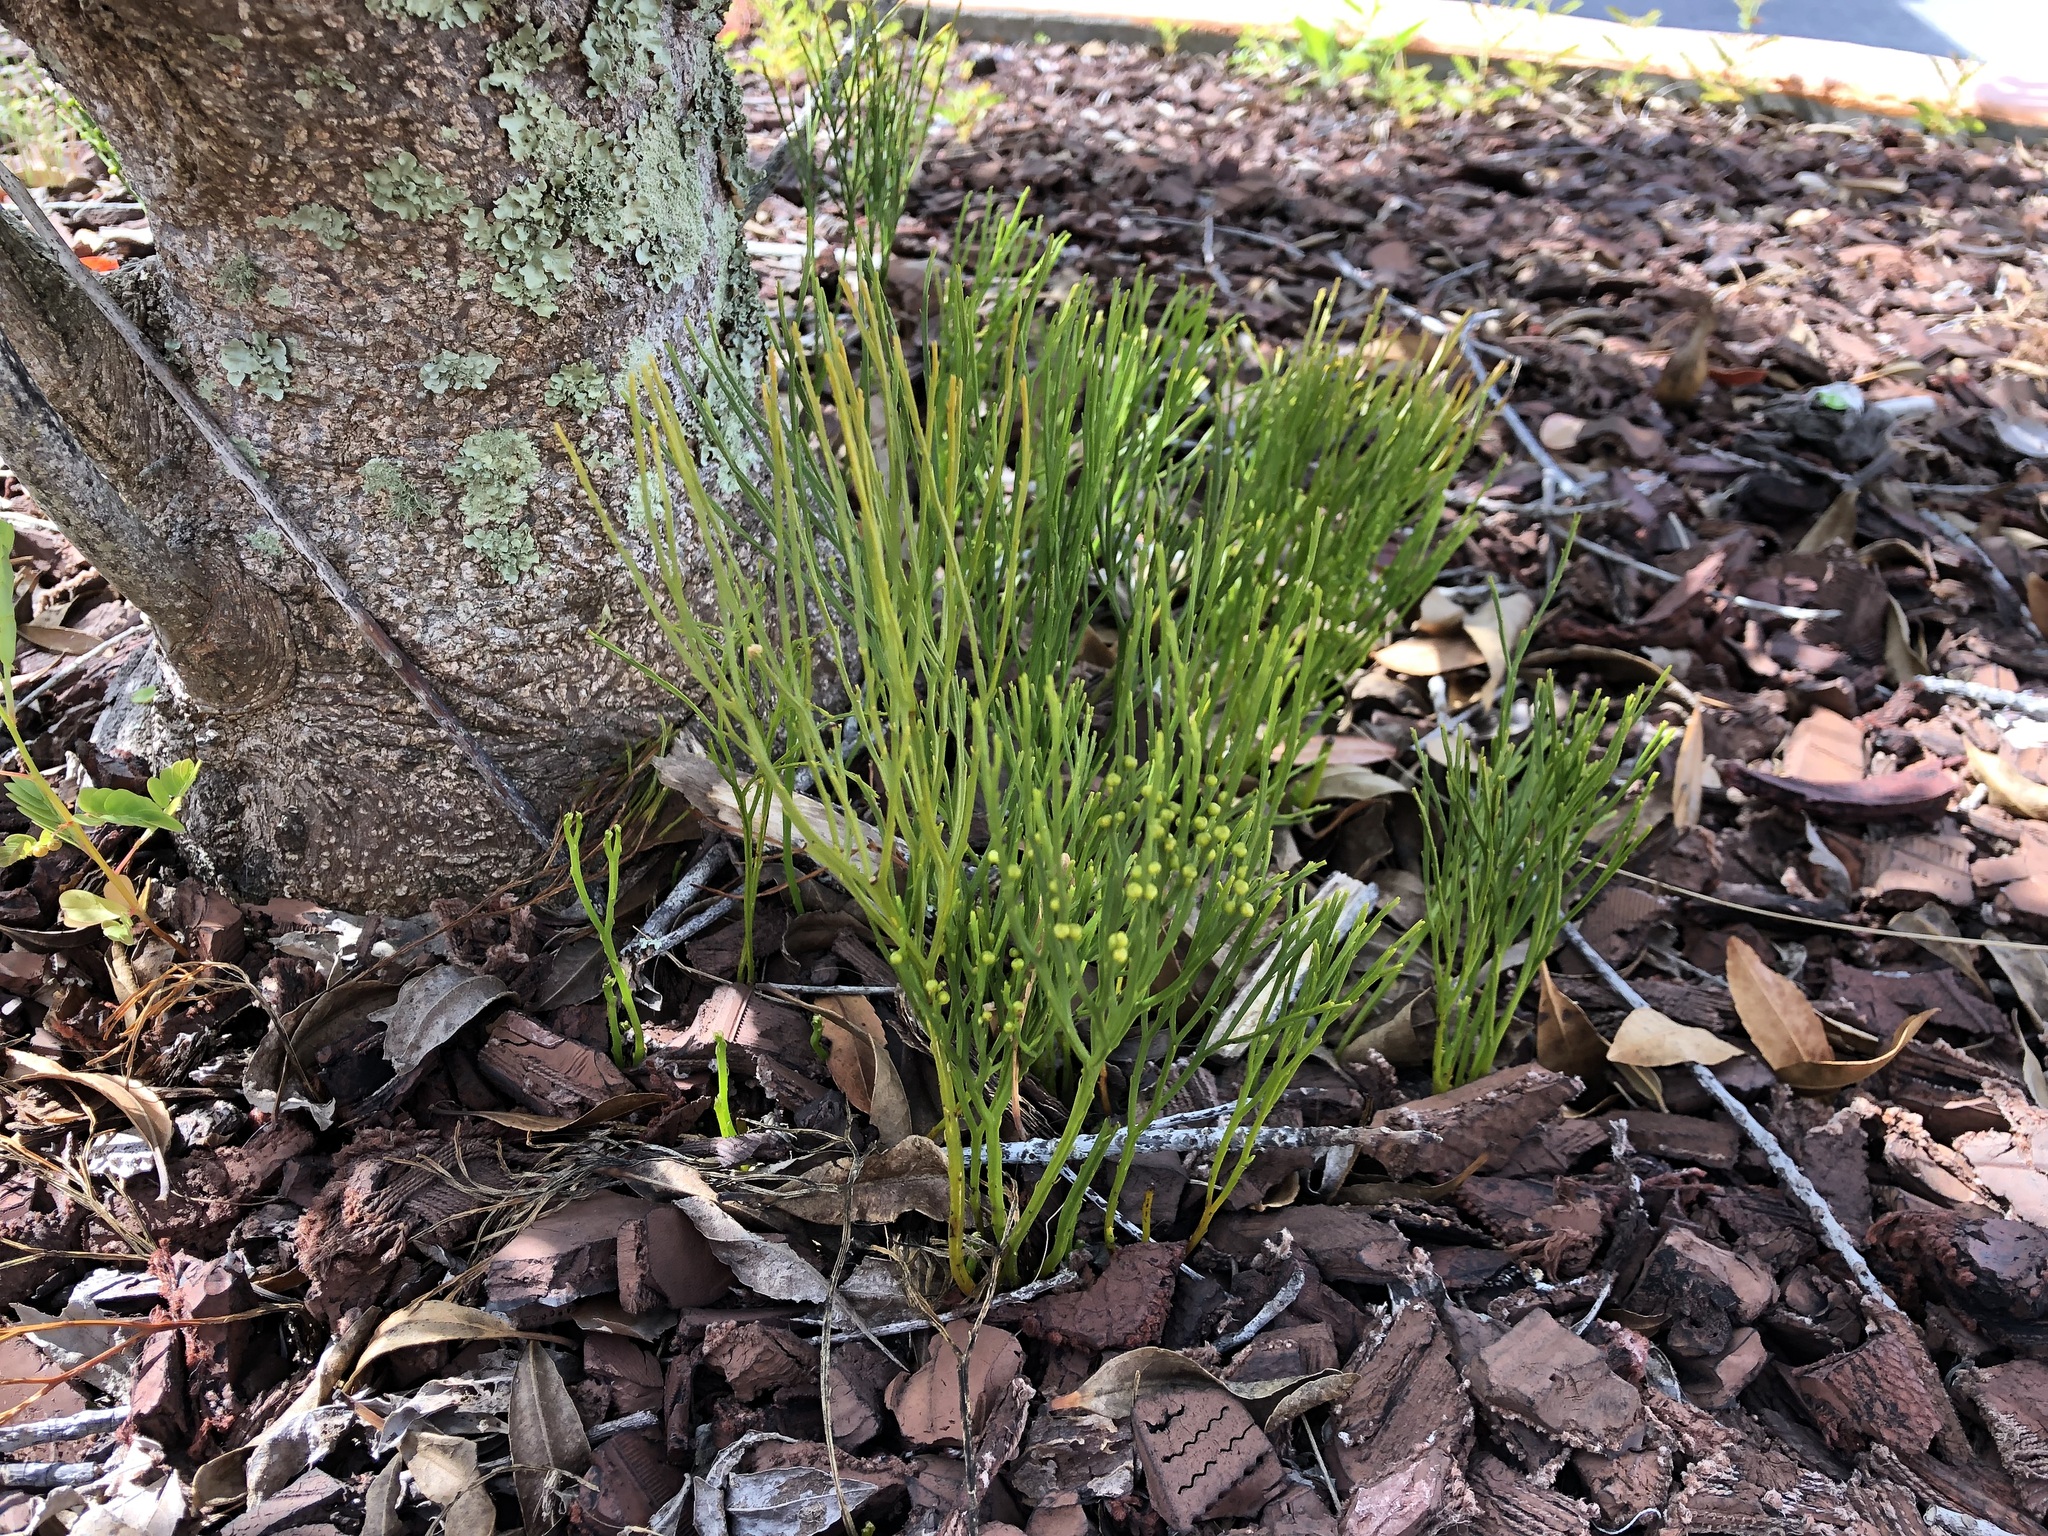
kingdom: Plantae
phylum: Tracheophyta
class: Polypodiopsida
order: Psilotales
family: Psilotaceae
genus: Psilotum
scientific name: Psilotum nudum
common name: Skeleton fork fern
